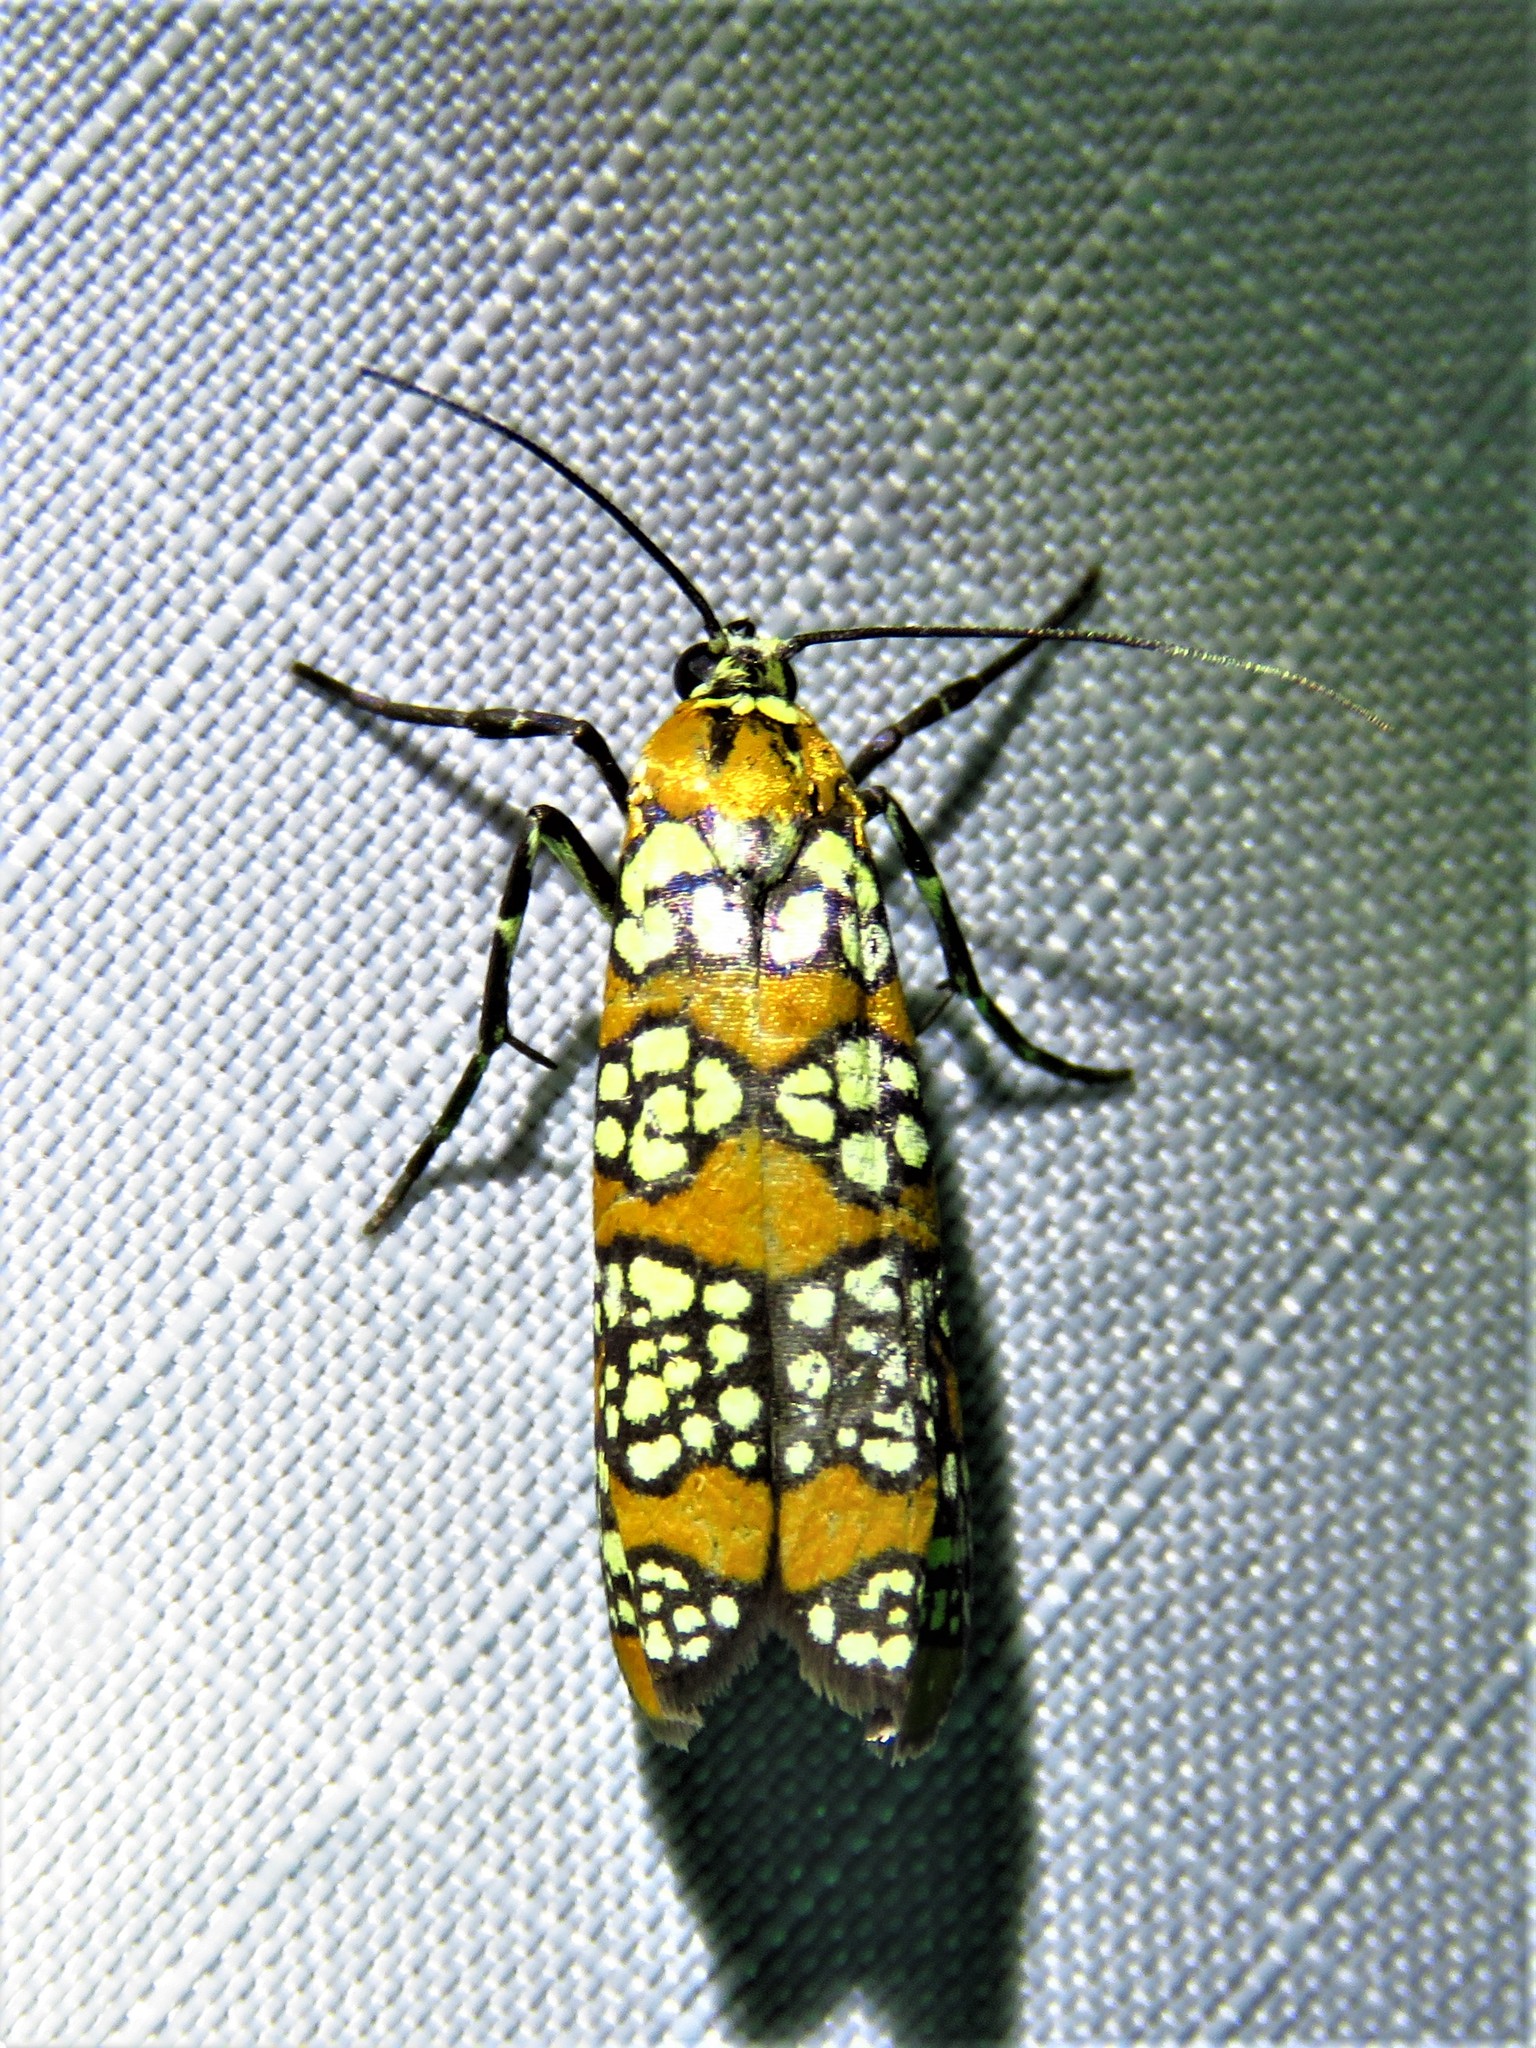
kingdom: Animalia
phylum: Arthropoda
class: Insecta
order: Lepidoptera
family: Attevidae
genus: Atteva
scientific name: Atteva punctella
